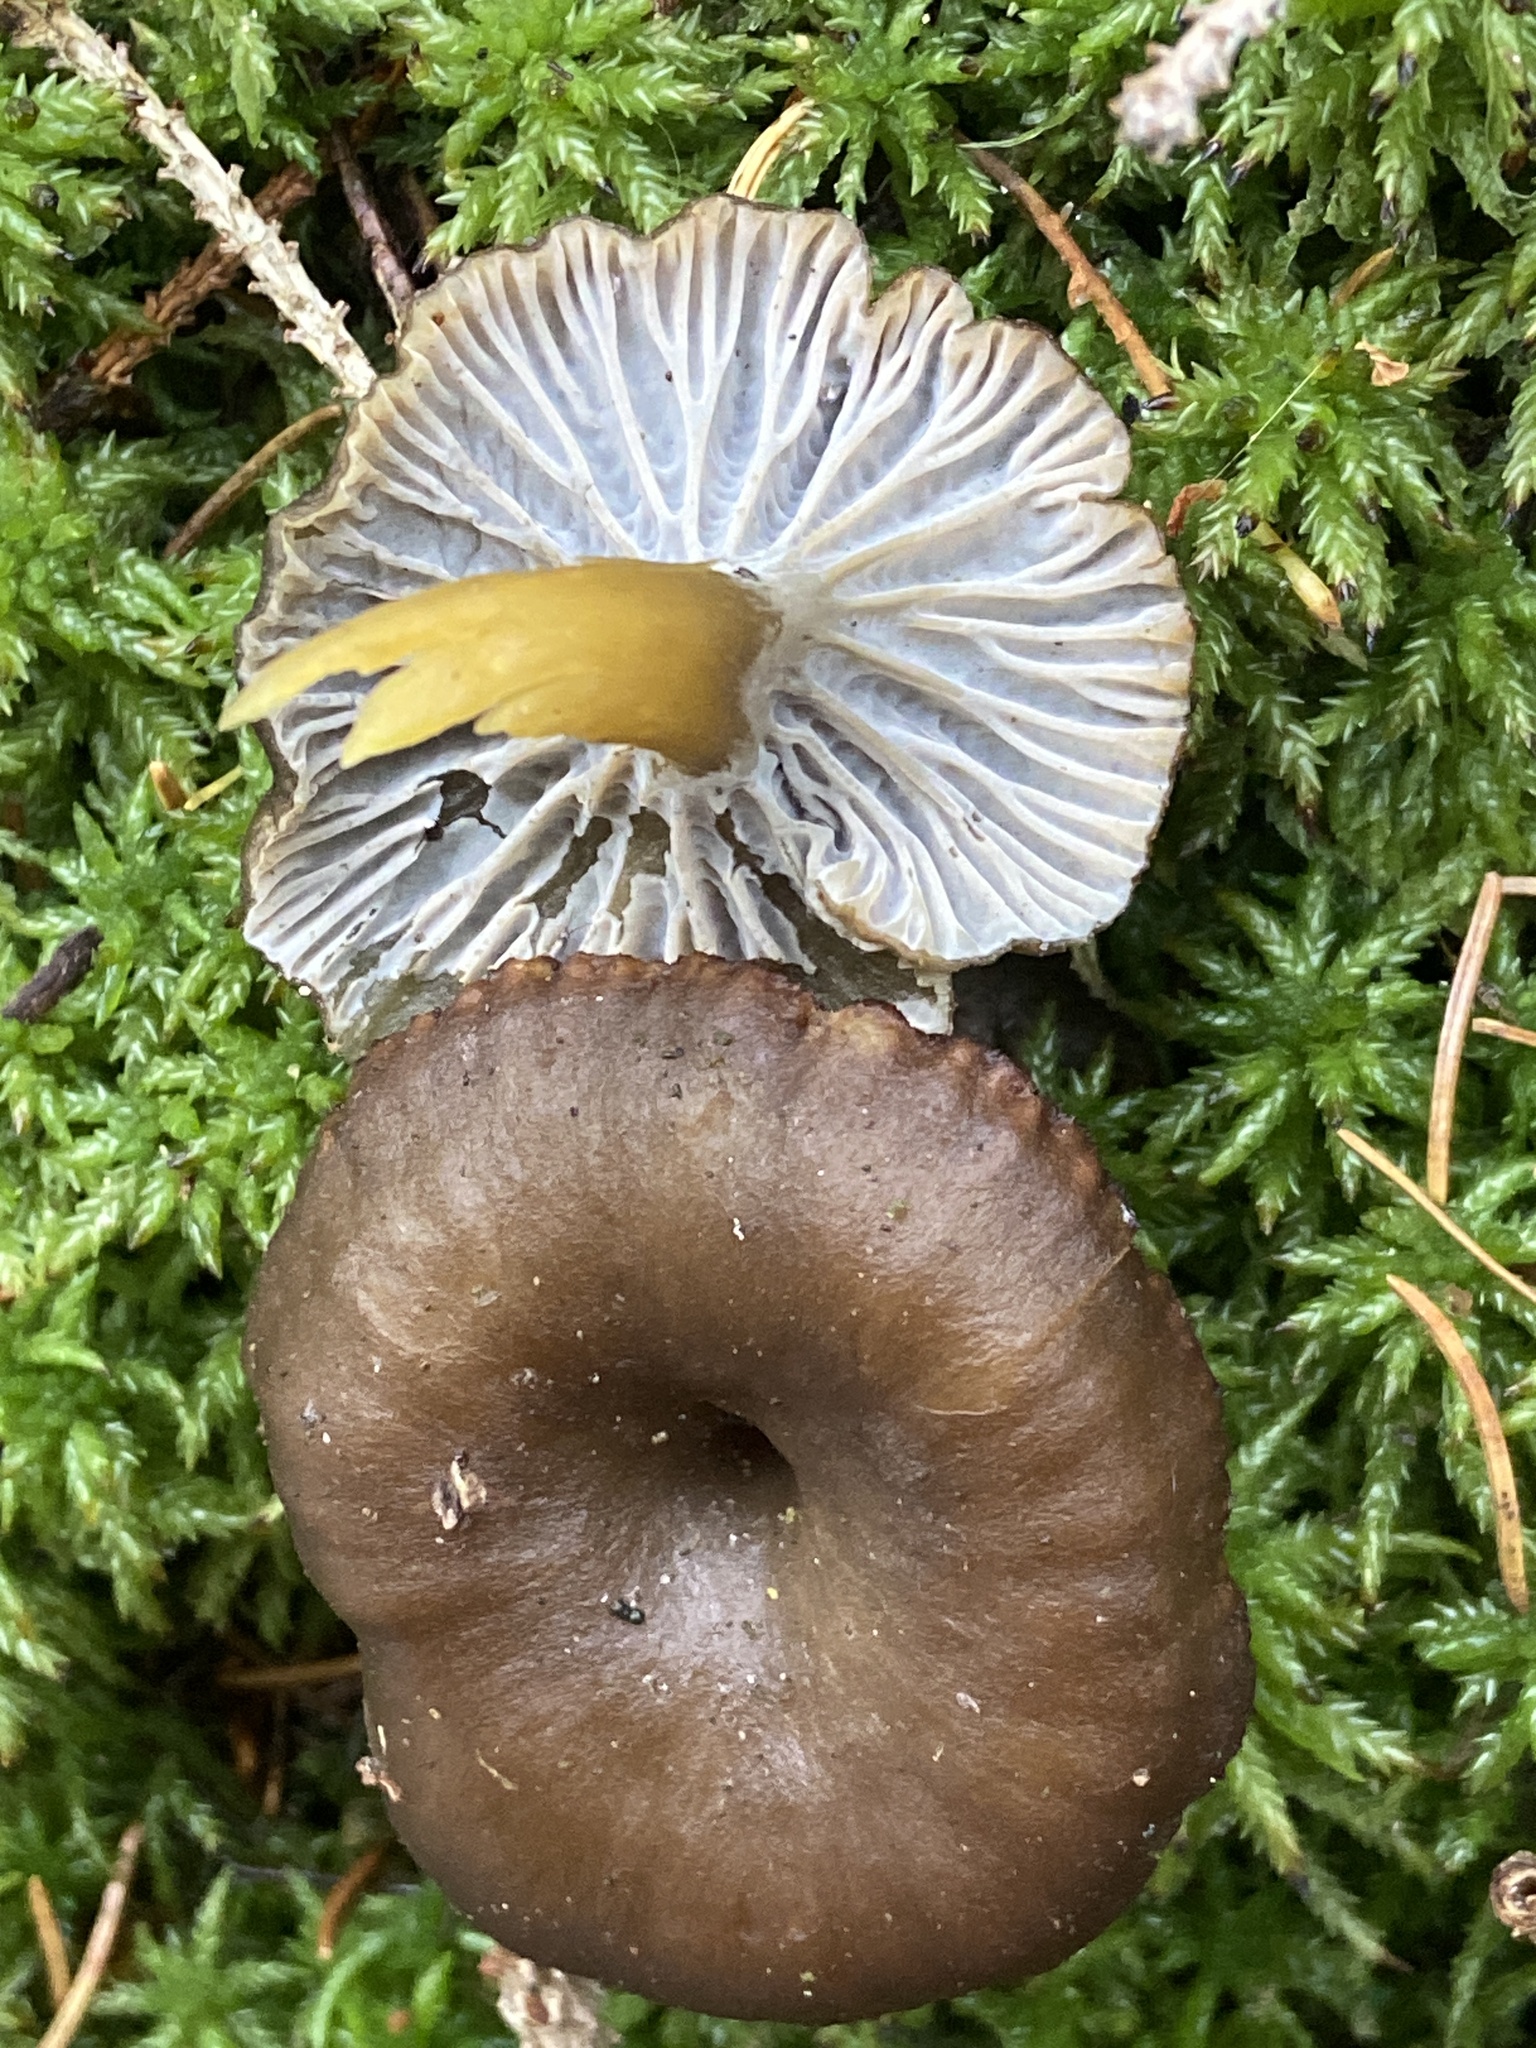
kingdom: Fungi
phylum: Basidiomycota
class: Agaricomycetes
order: Cantharellales
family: Hydnaceae
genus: Craterellus
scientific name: Craterellus tubaeformis
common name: Yellowfoot
